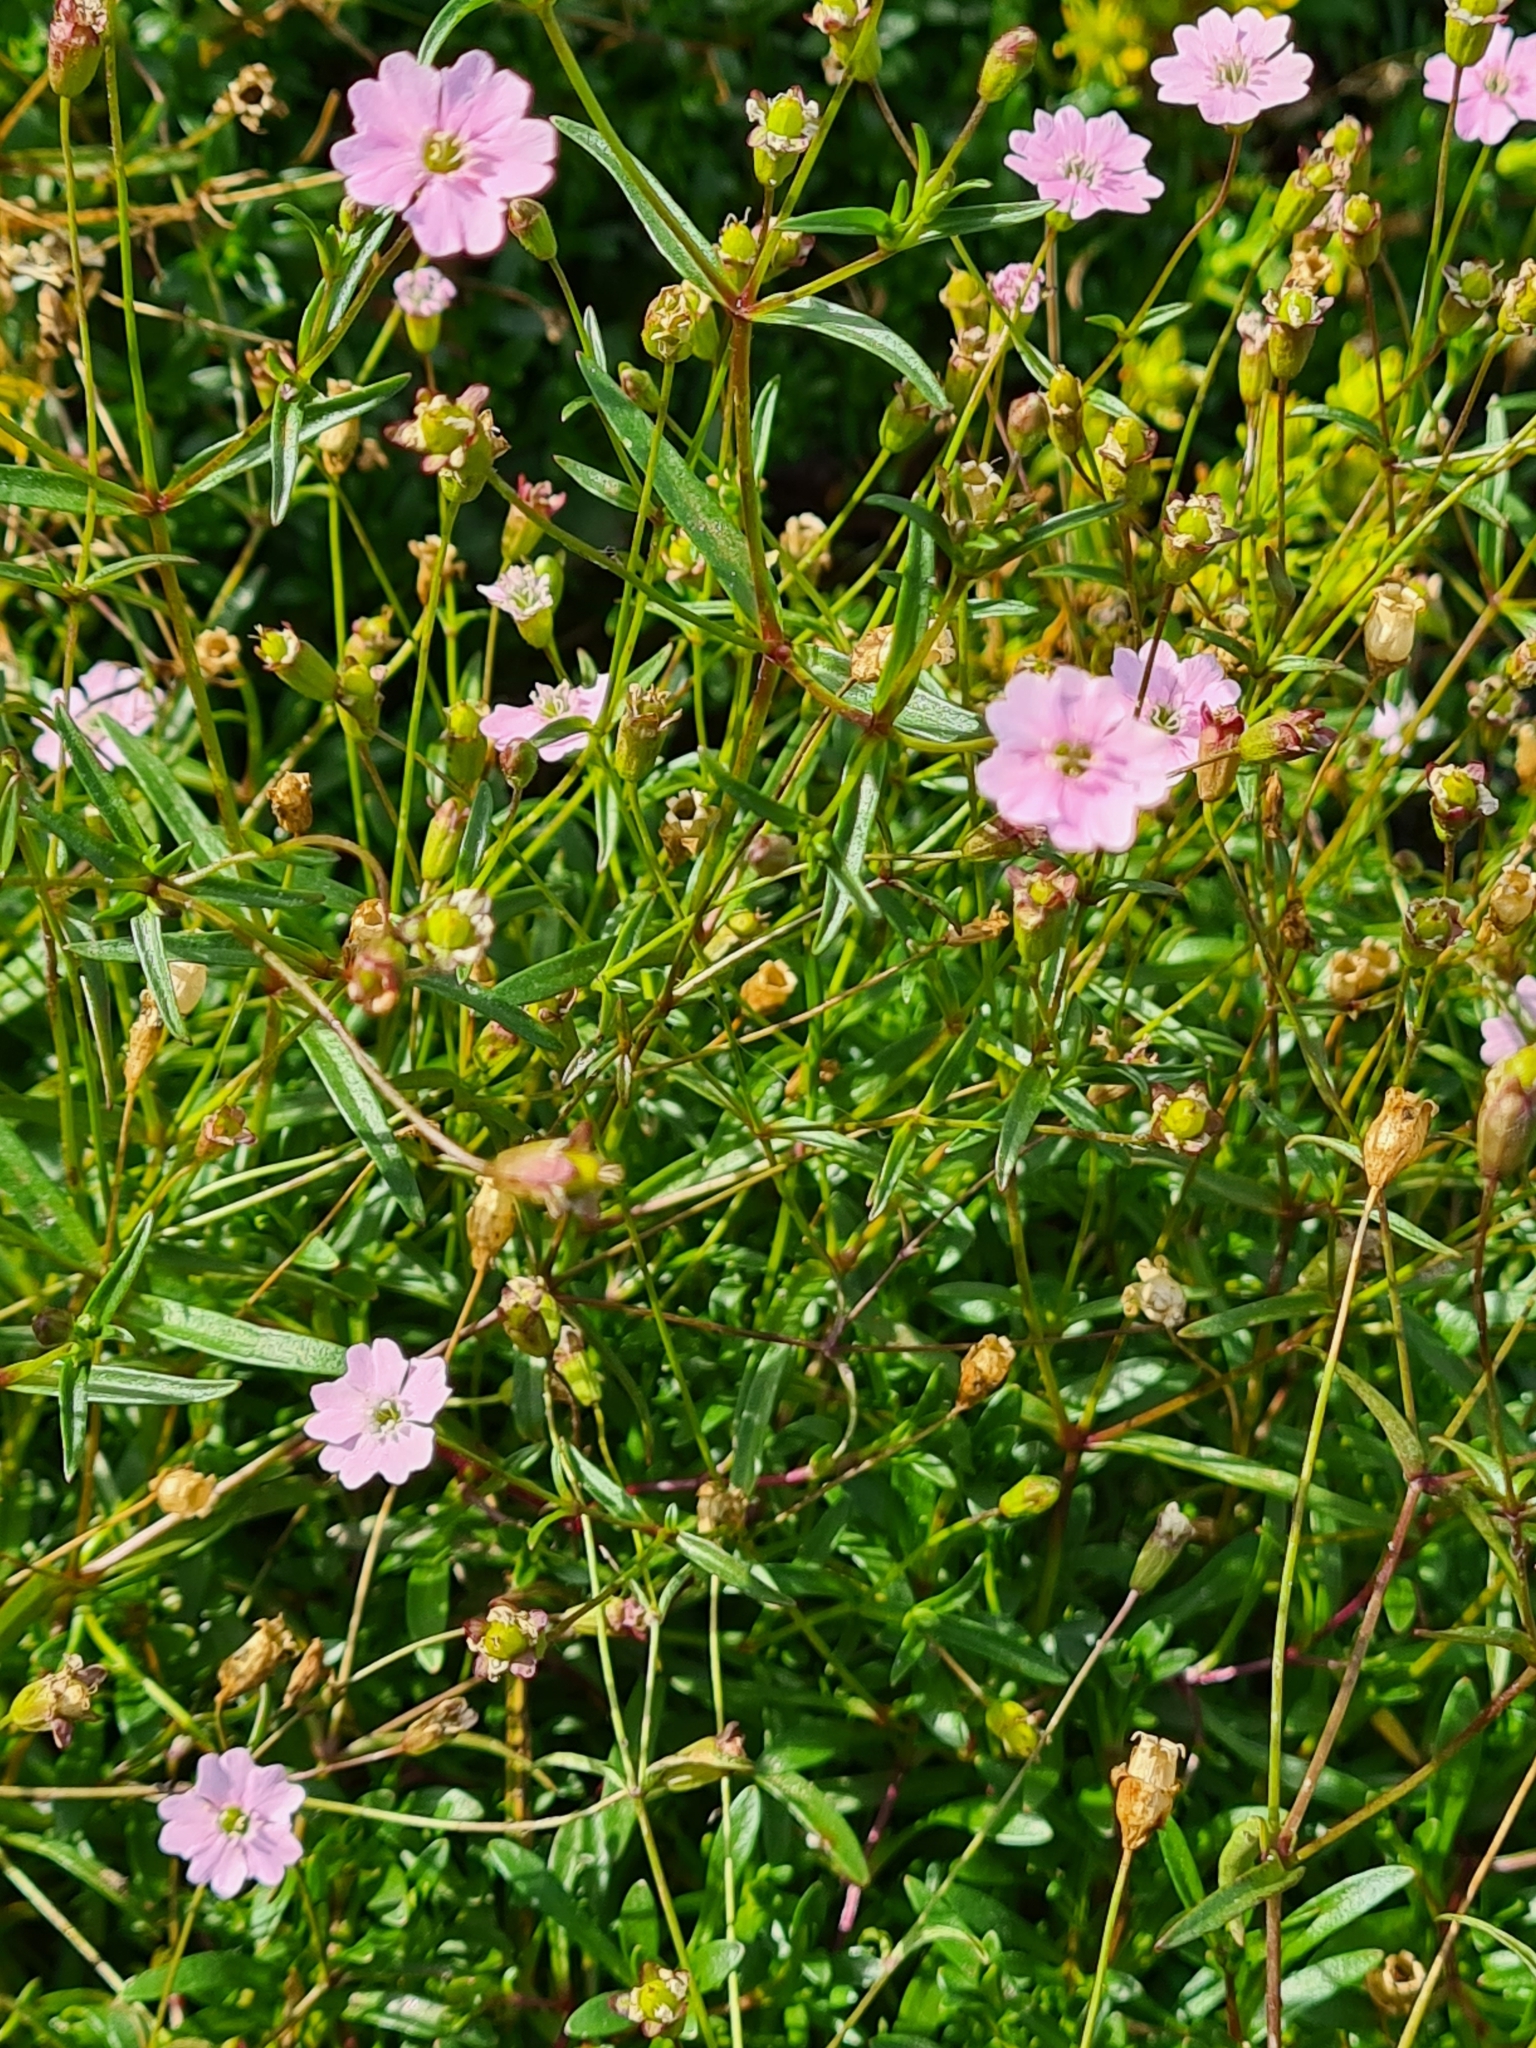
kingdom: Plantae
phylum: Tracheophyta
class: Magnoliopsida
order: Caryophyllales
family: Caryophyllaceae
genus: Heliosperma
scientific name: Heliosperma pudibundum
